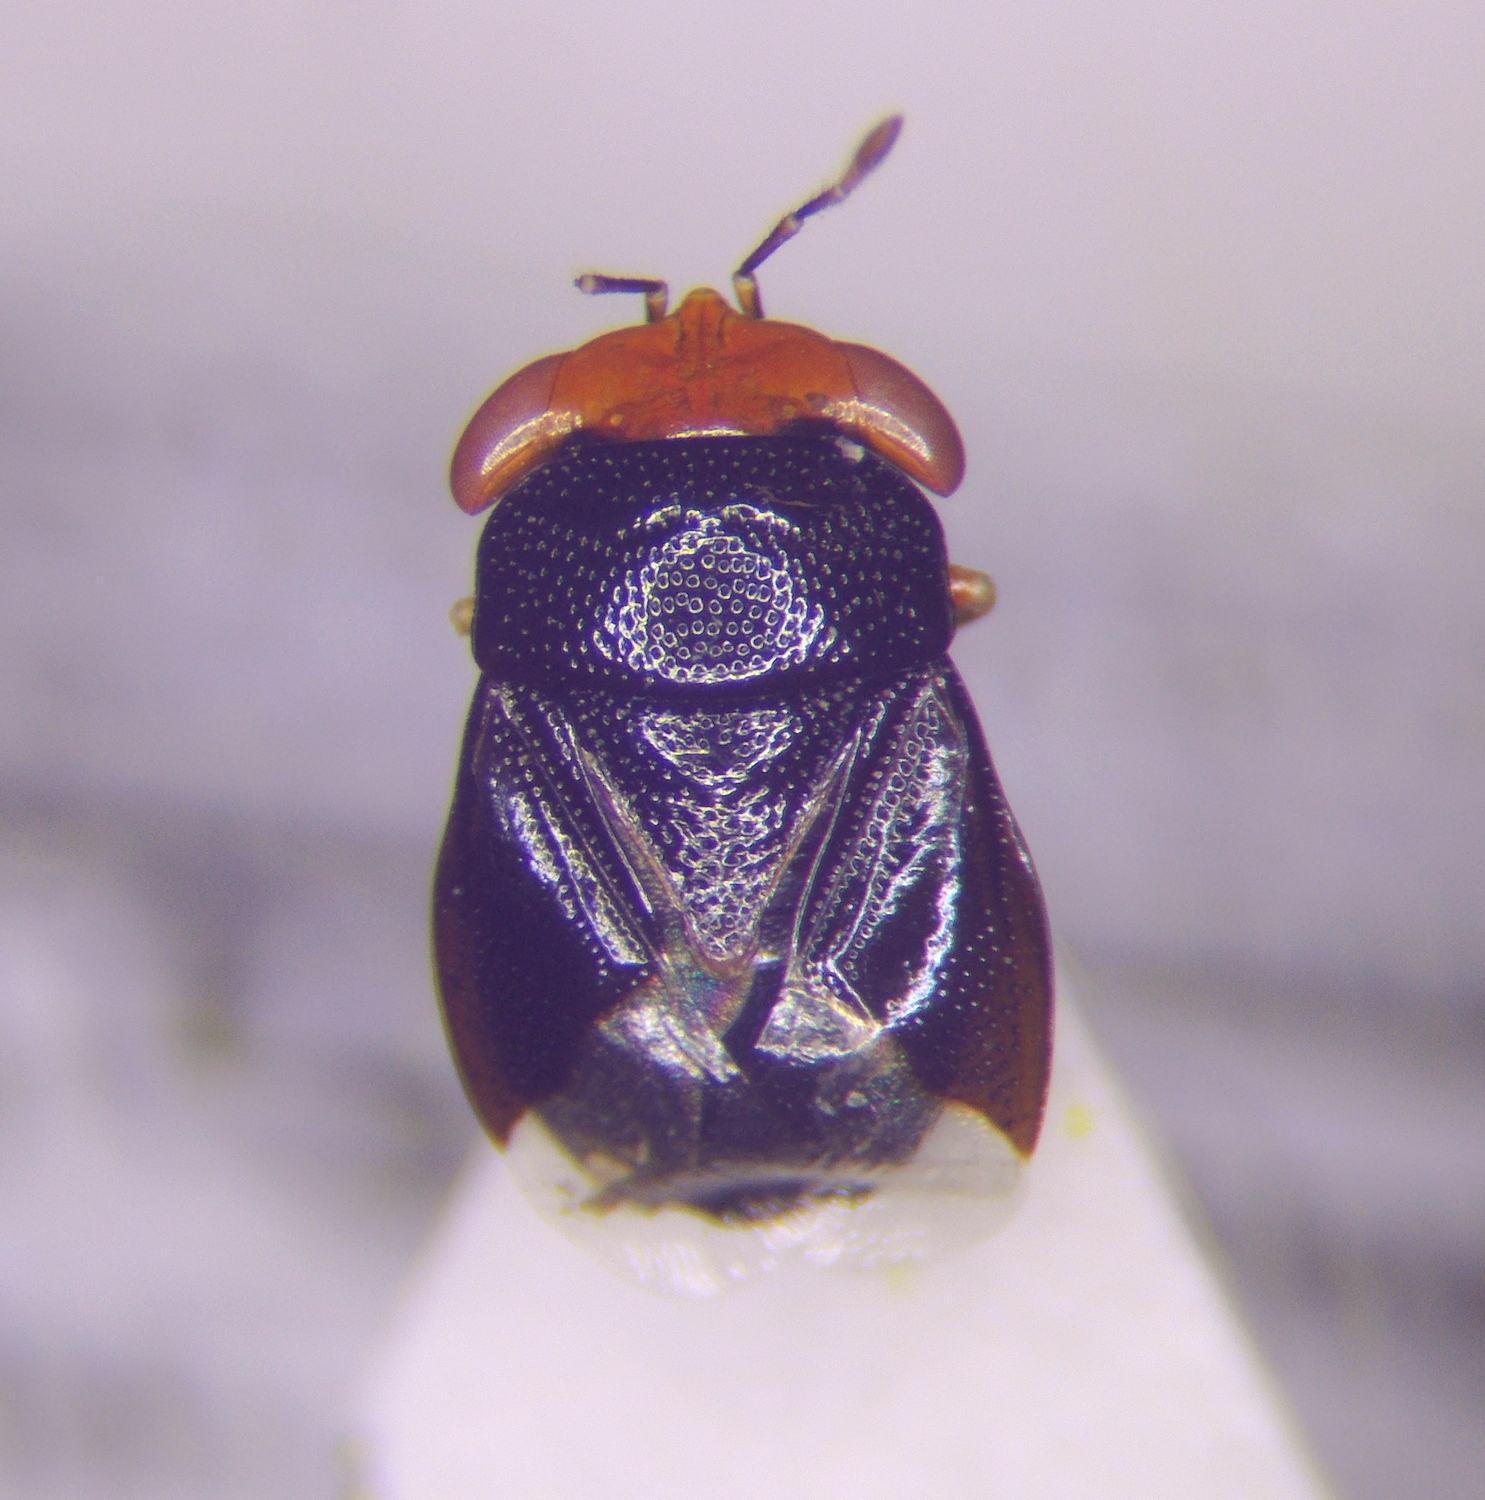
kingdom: Animalia
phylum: Arthropoda
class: Insecta
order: Hemiptera
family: Geocoridae
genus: Geocoris
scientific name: Geocoris erythrocephala
